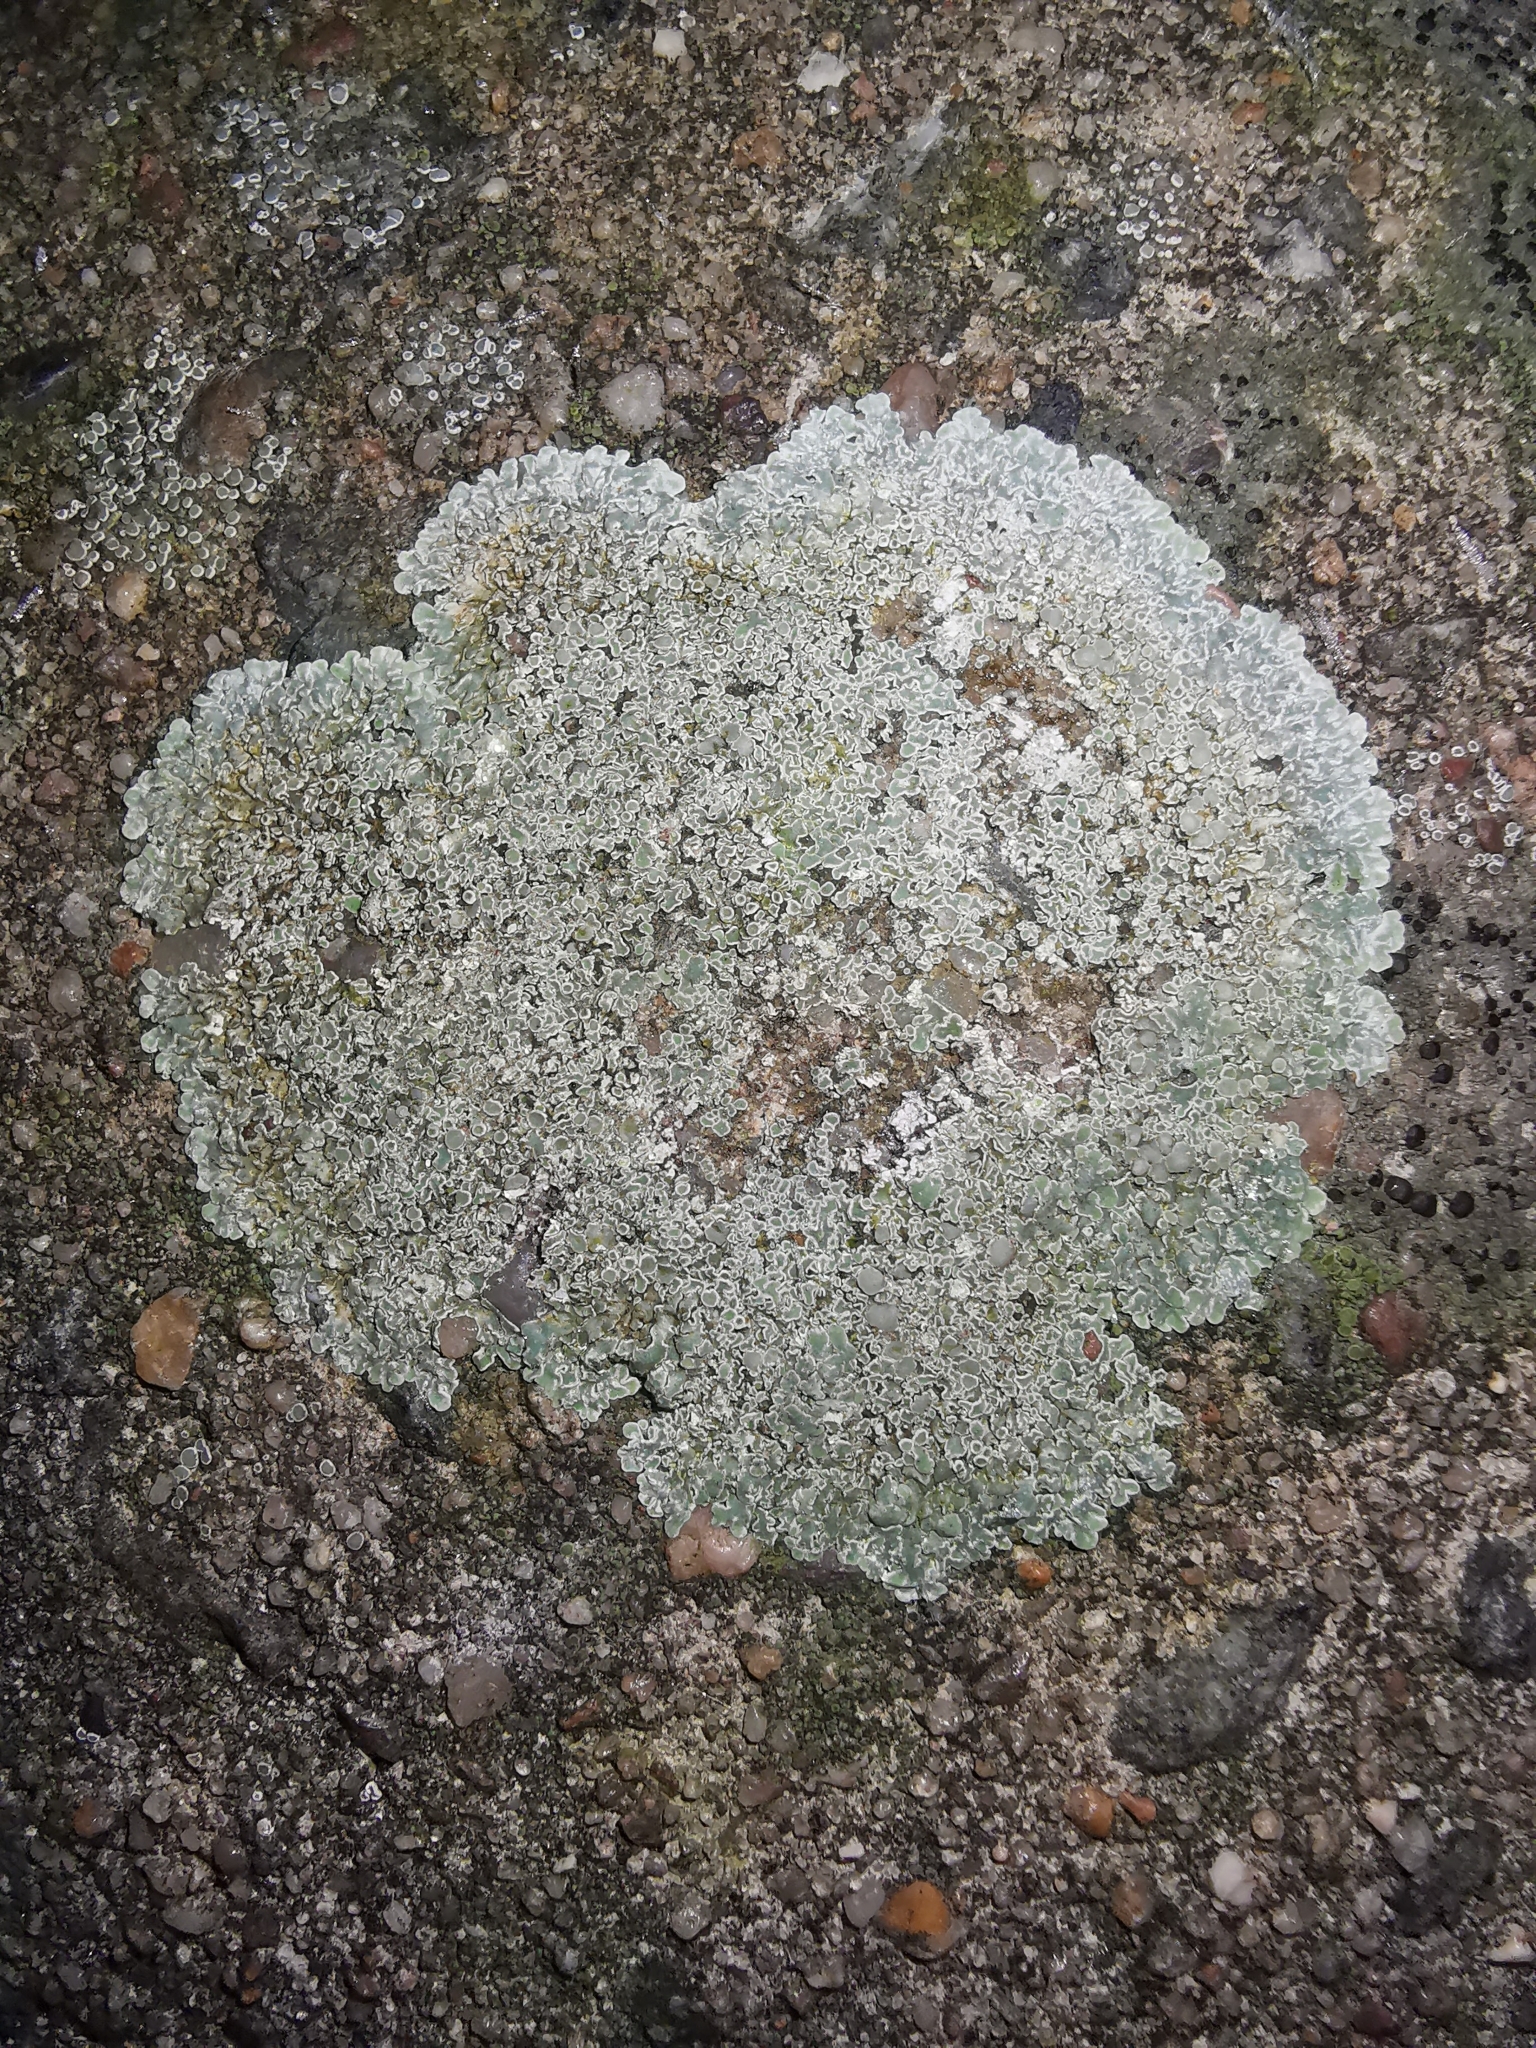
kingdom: Fungi
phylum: Ascomycota
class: Lecanoromycetes
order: Lecanorales
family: Lecanoraceae
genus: Protoparmeliopsis
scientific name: Protoparmeliopsis muralis
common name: Stonewall rim lichen
